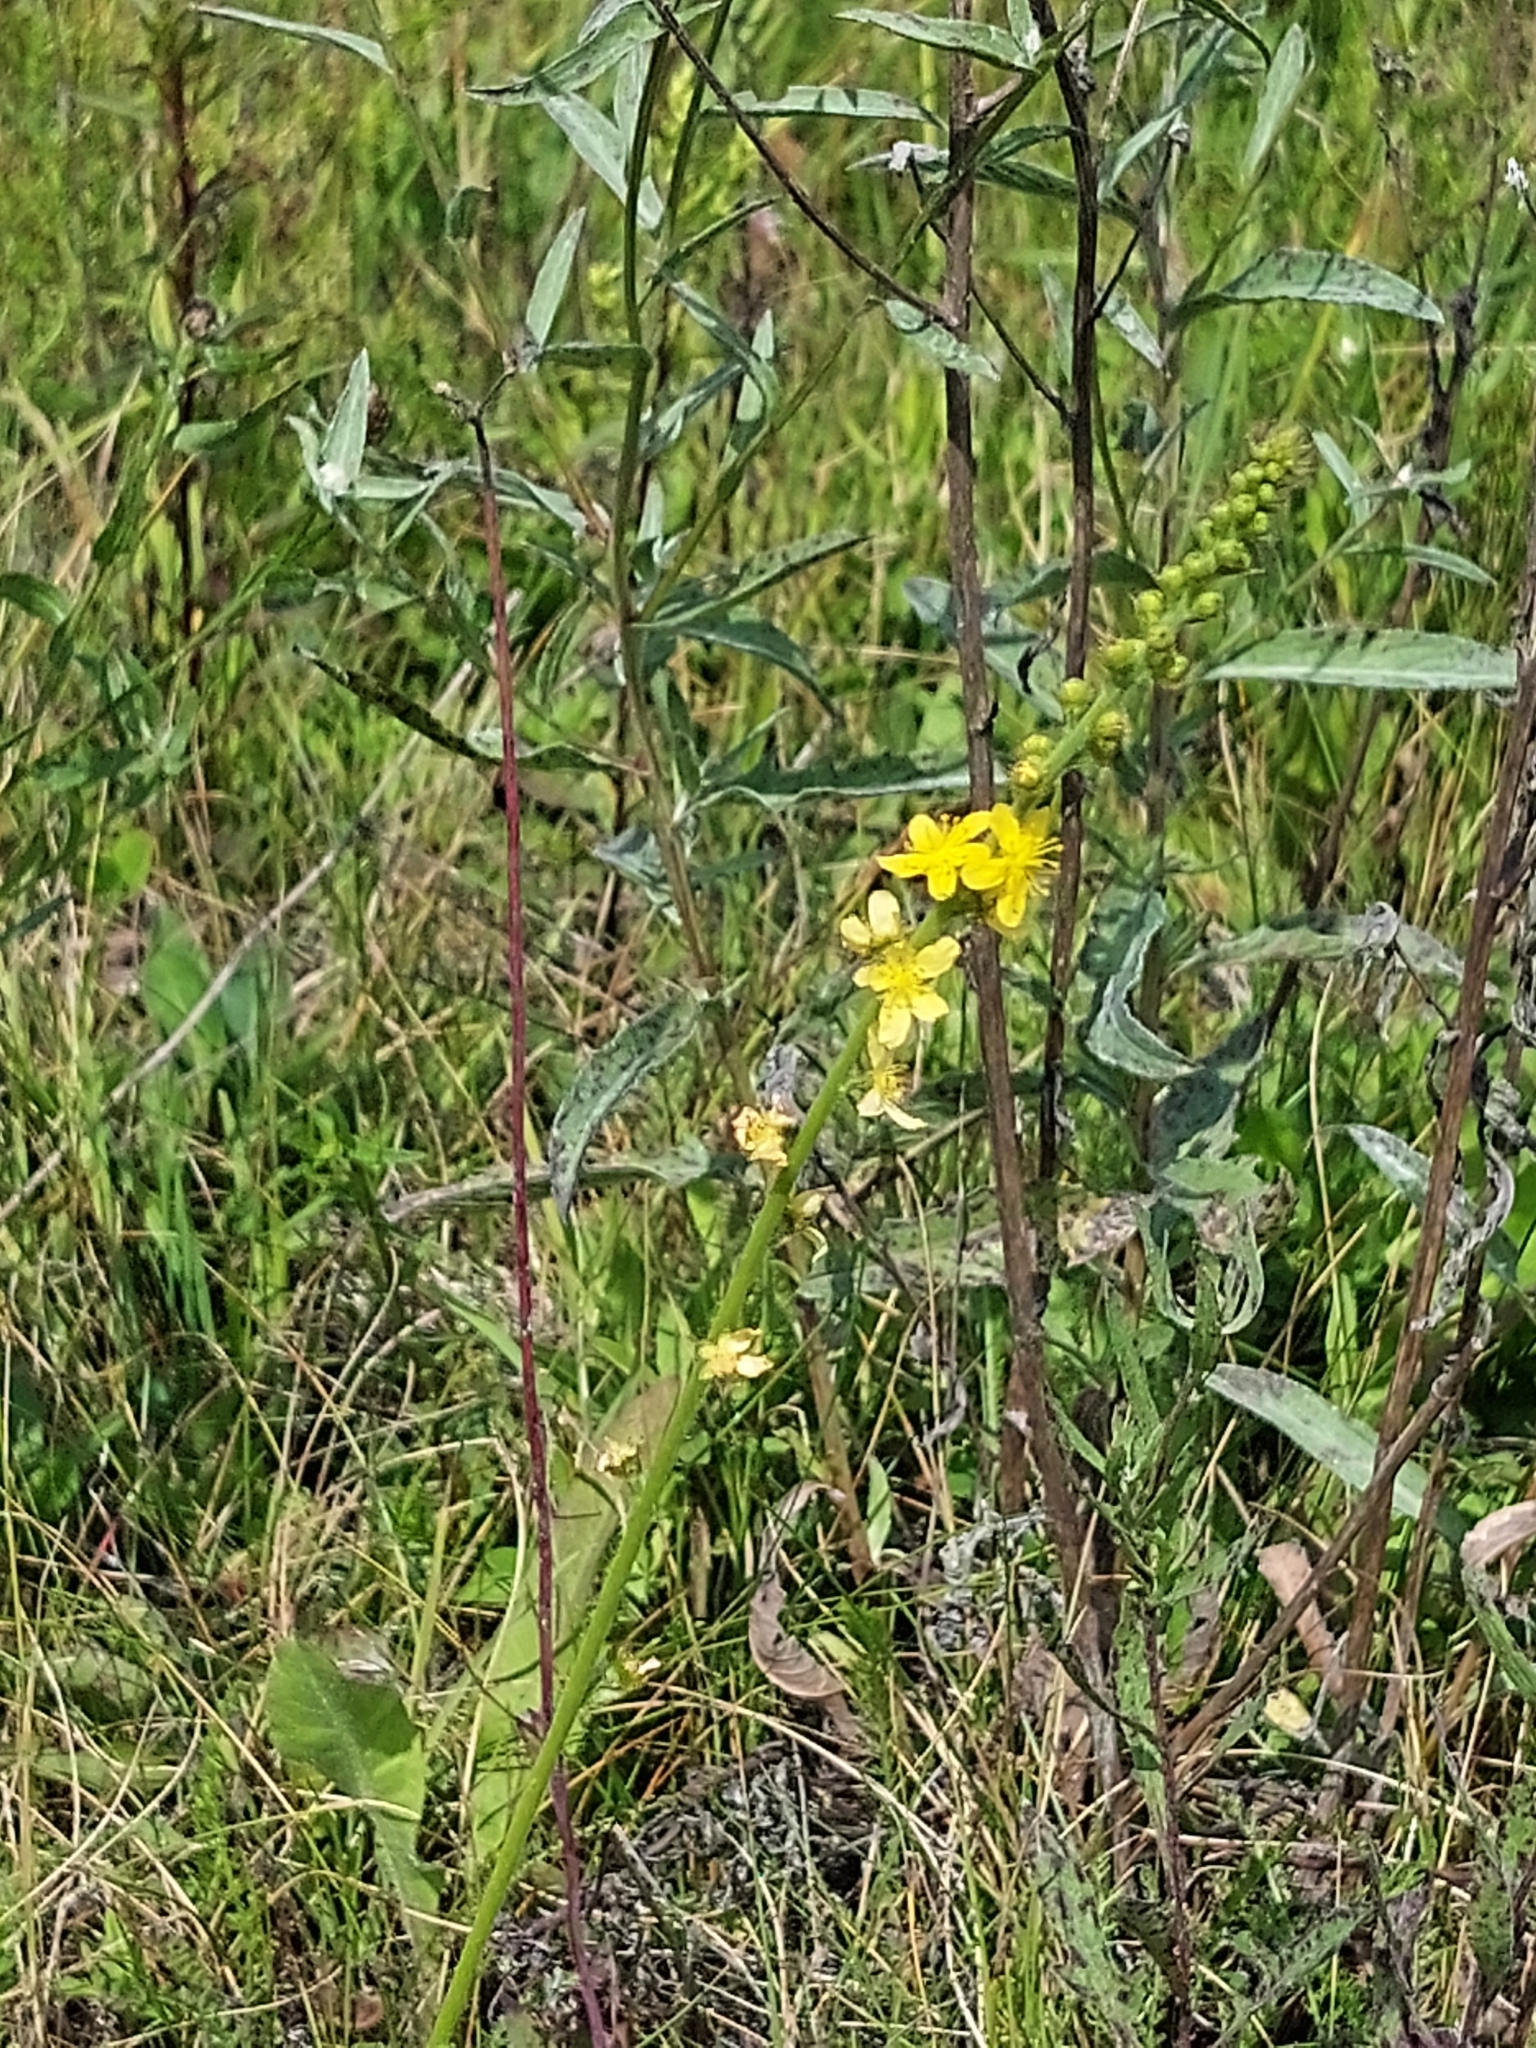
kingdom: Plantae
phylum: Tracheophyta
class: Magnoliopsida
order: Rosales
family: Rosaceae
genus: Agrimonia
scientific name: Agrimonia eupatoria
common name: Agrimony
